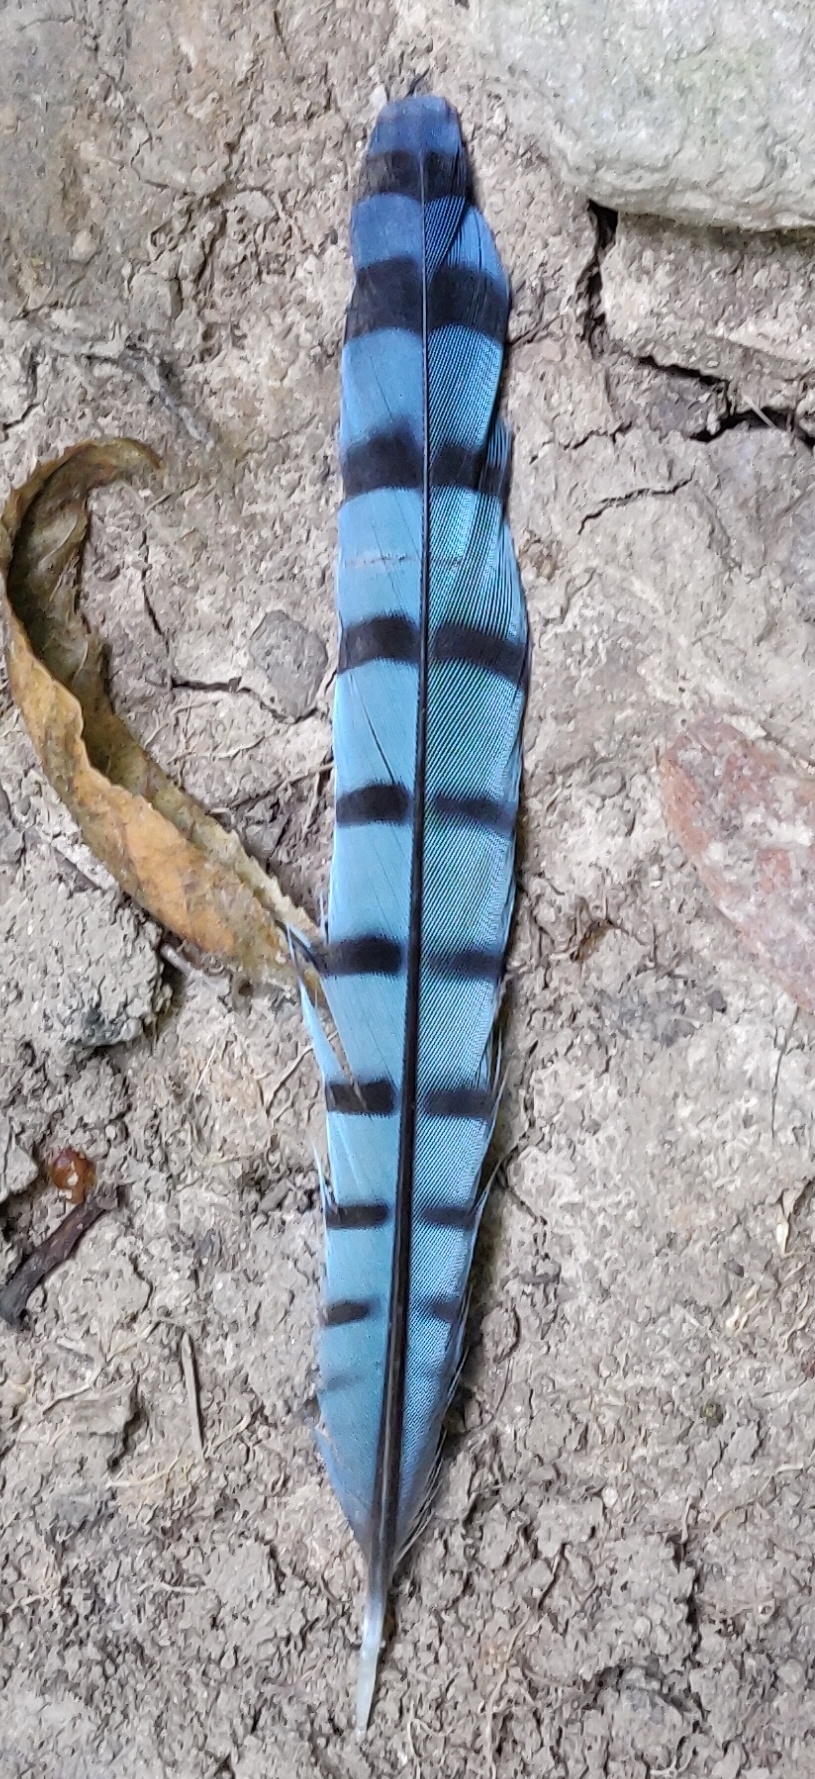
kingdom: Animalia
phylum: Chordata
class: Aves
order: Passeriformes
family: Corvidae
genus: Cyanocitta
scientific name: Cyanocitta cristata
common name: Blue jay
